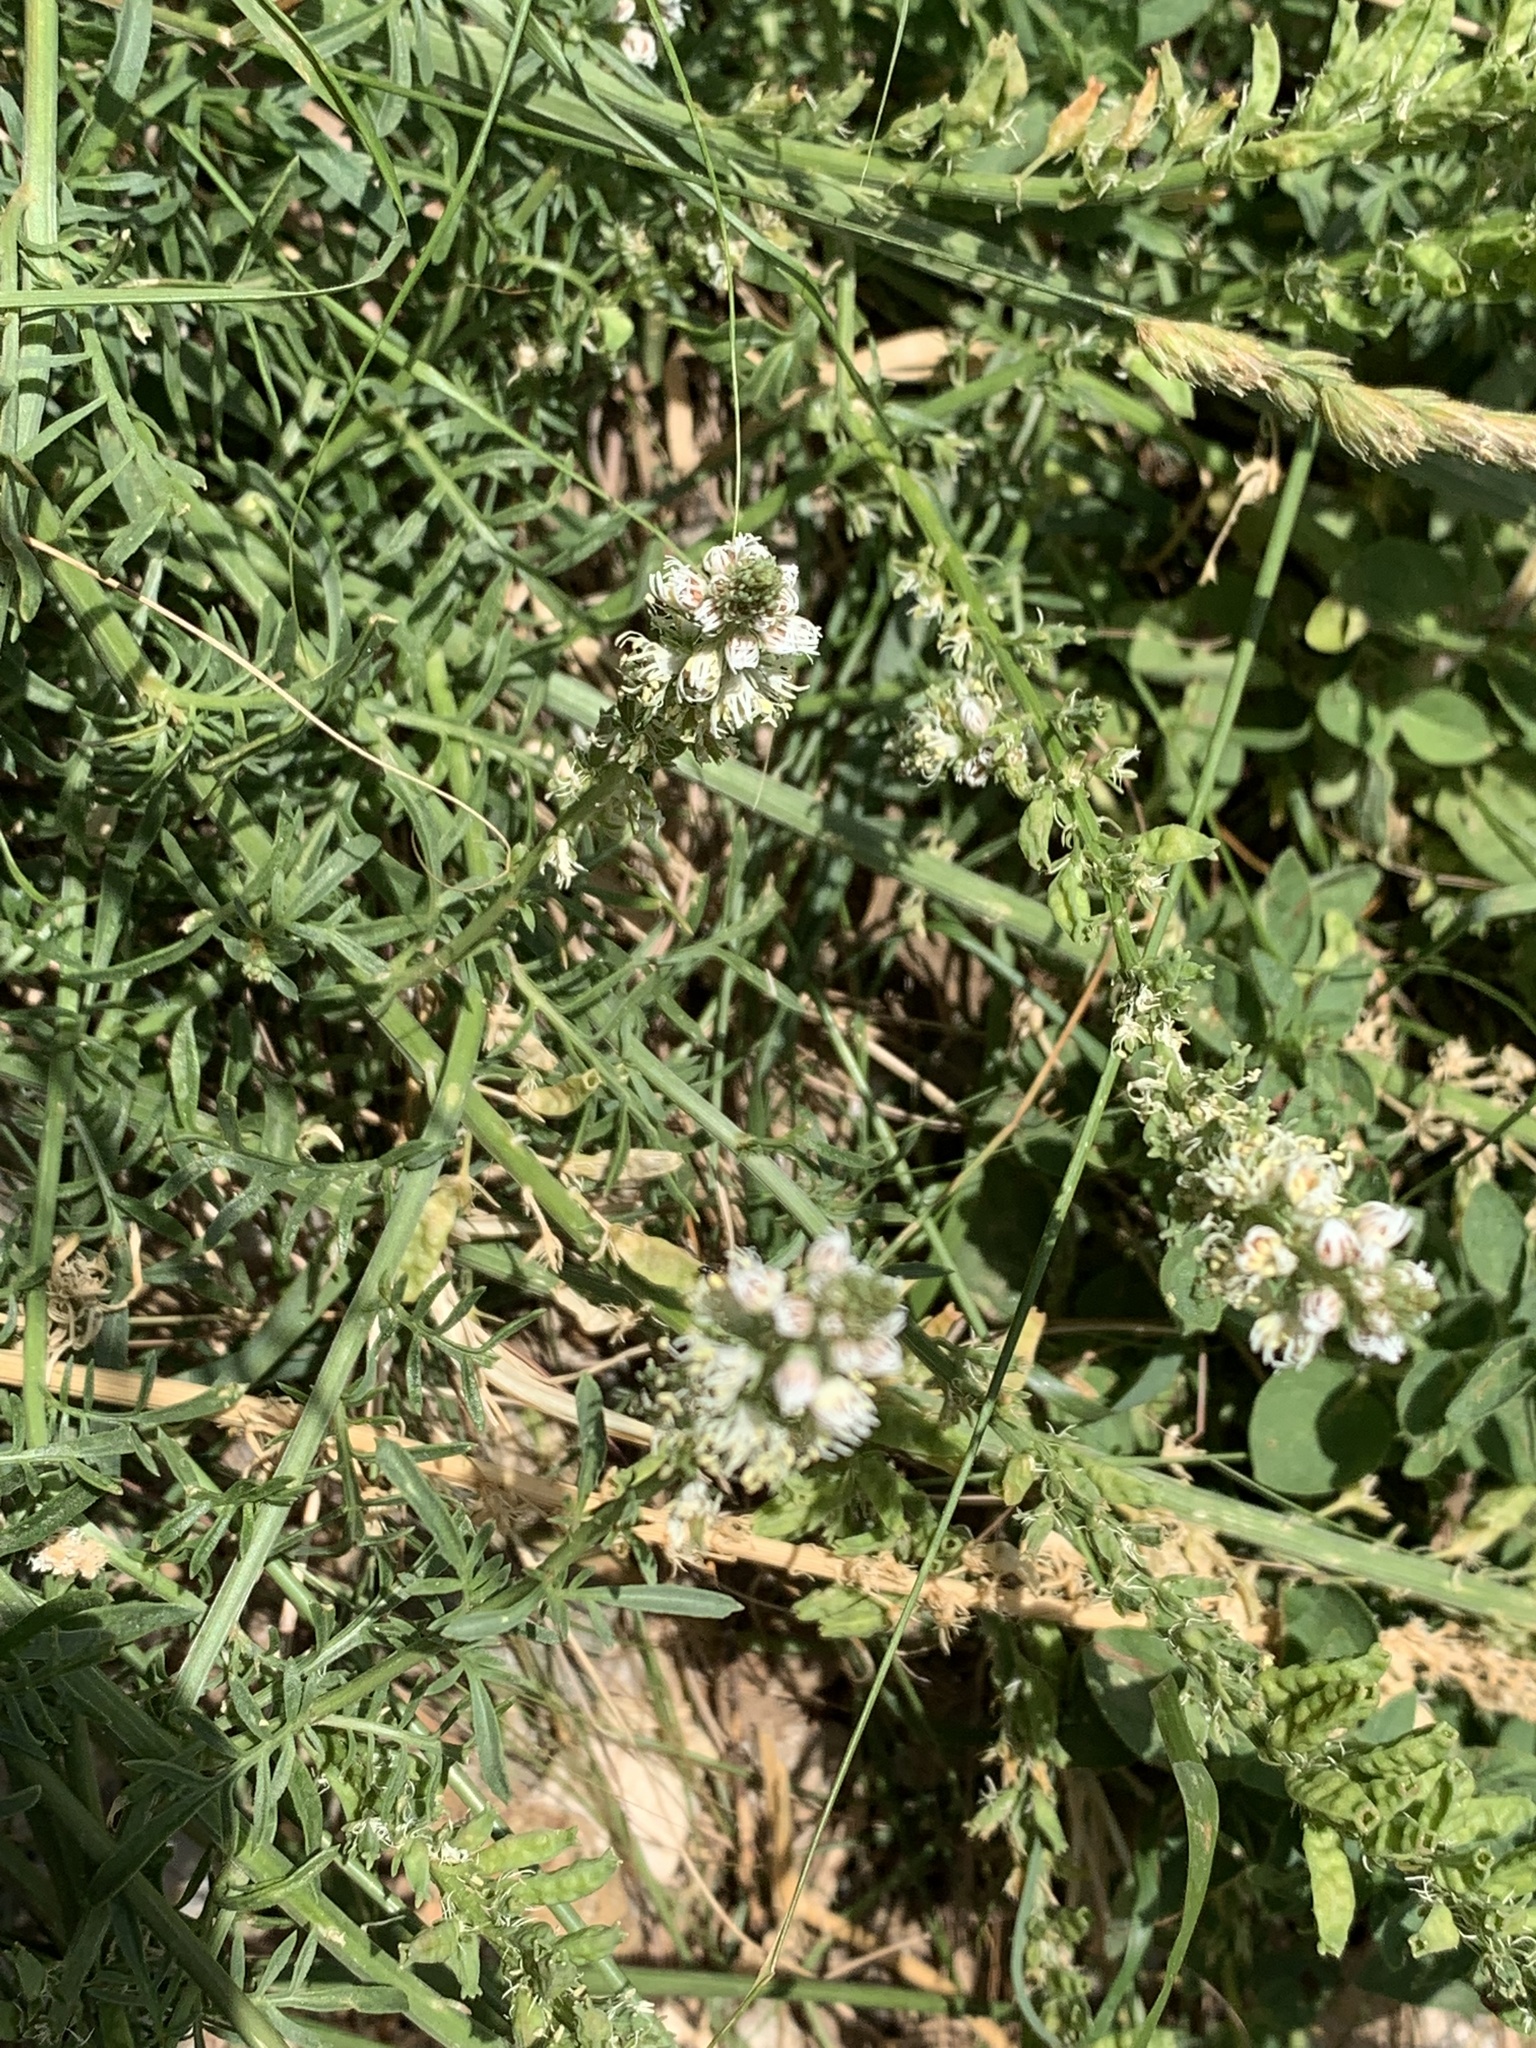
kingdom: Plantae
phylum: Tracheophyta
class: Magnoliopsida
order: Brassicales
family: Resedaceae
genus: Reseda
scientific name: Reseda alba
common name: White mignonette
